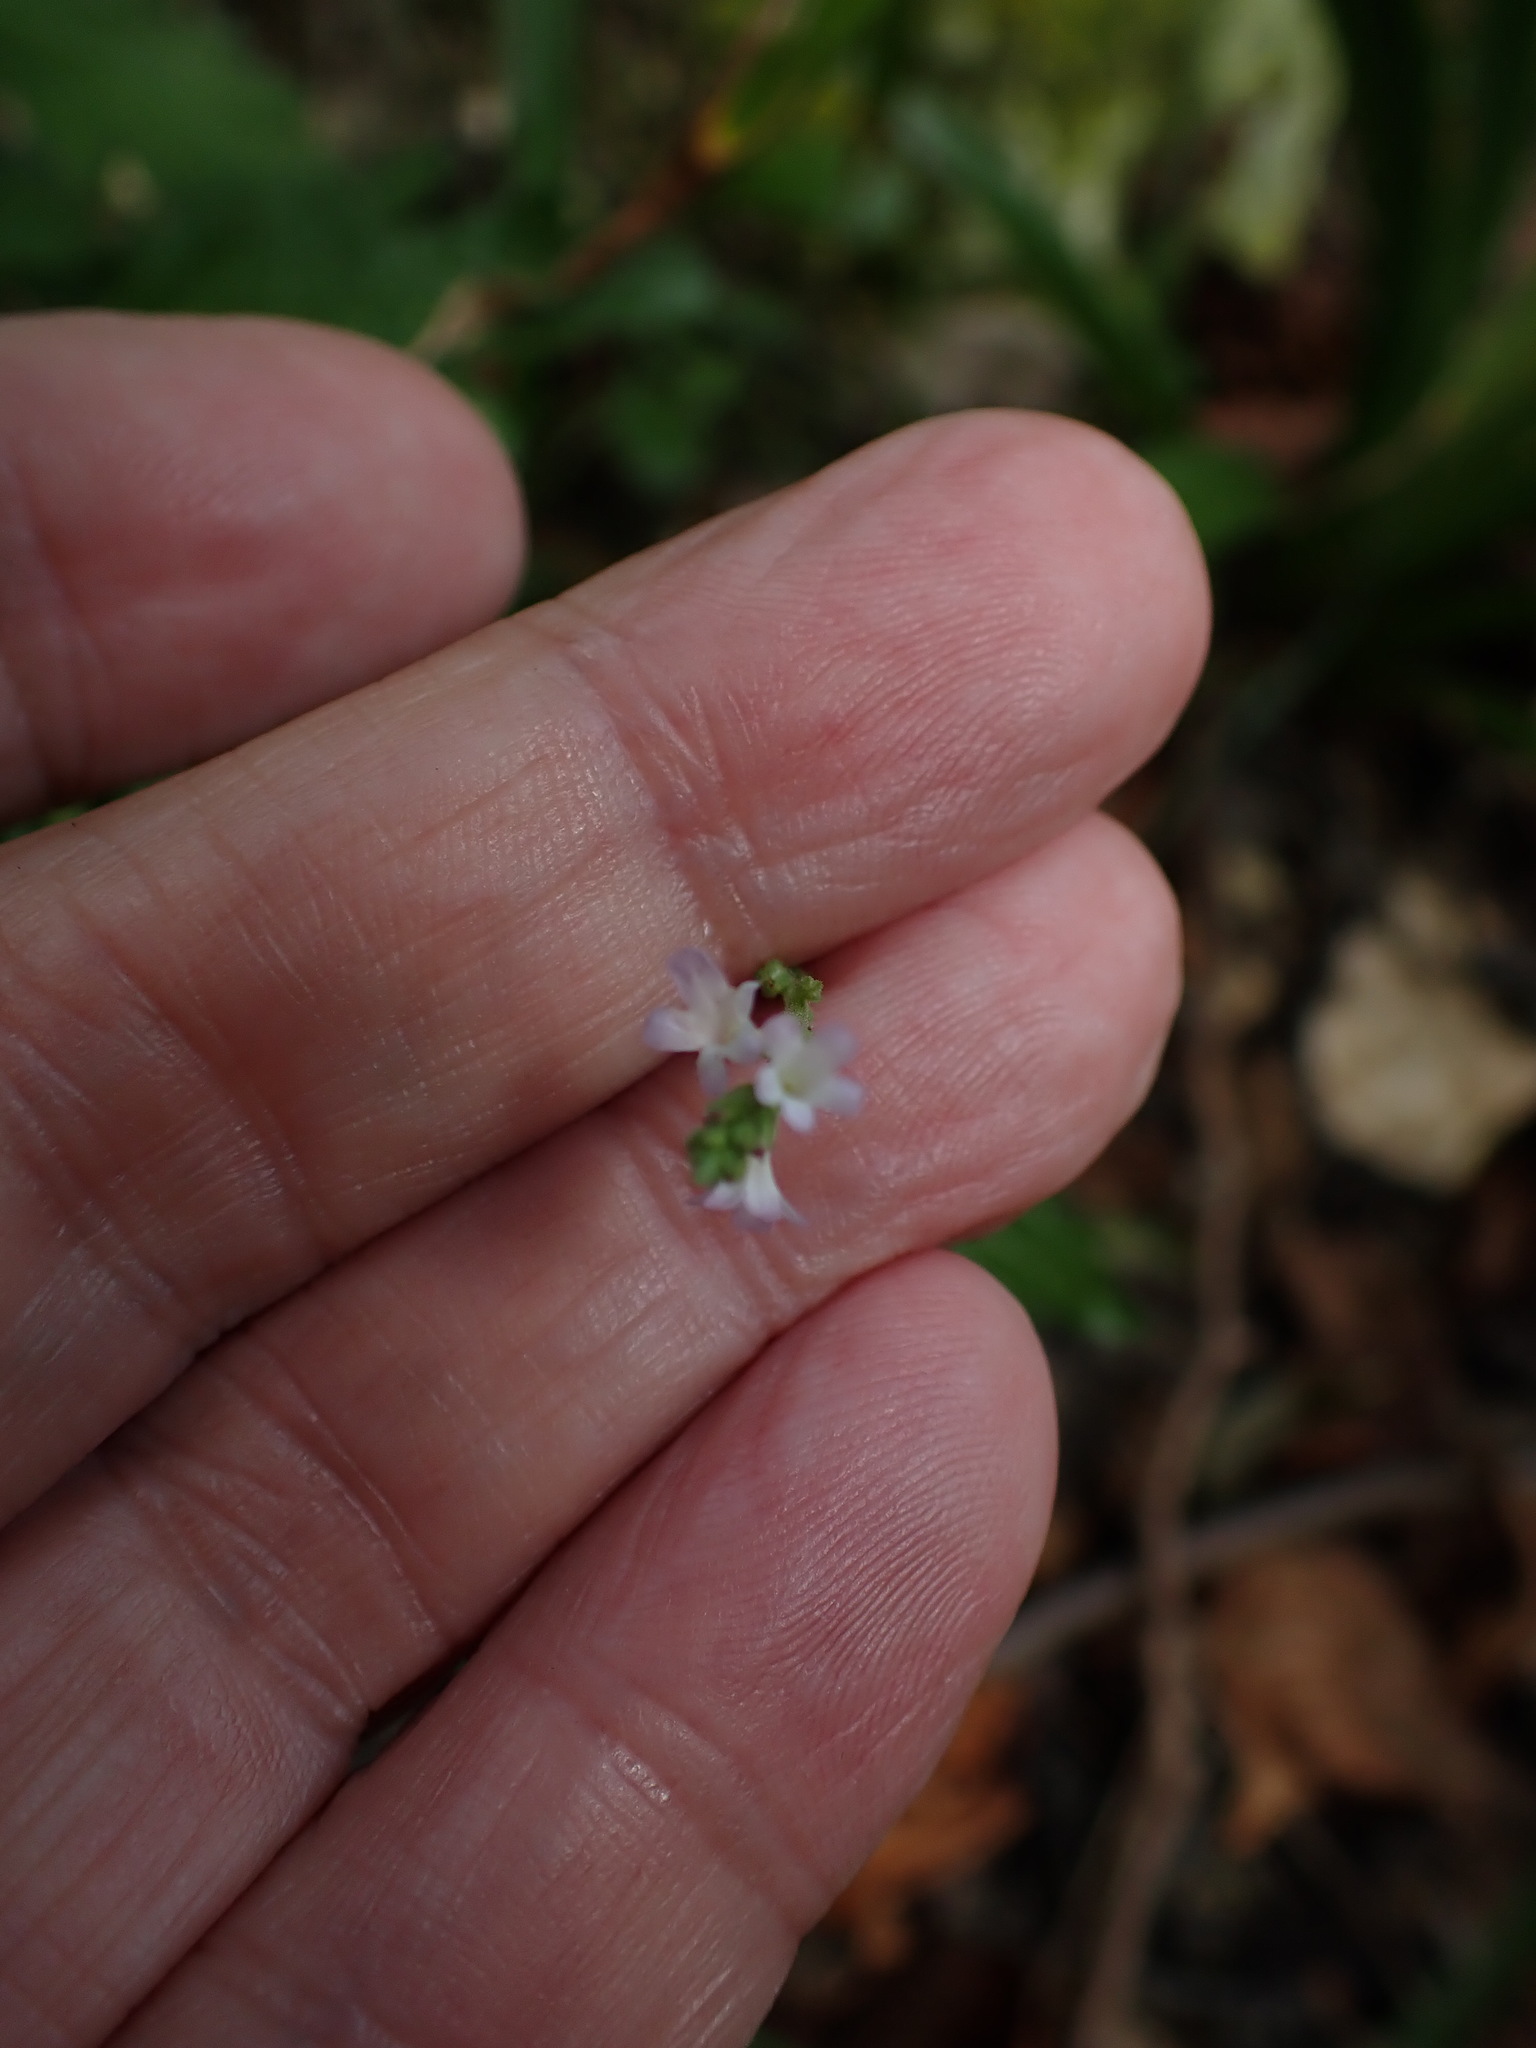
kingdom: Plantae
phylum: Tracheophyta
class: Magnoliopsida
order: Lamiales
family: Verbenaceae
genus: Verbena
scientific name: Verbena officinalis
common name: Vervain
